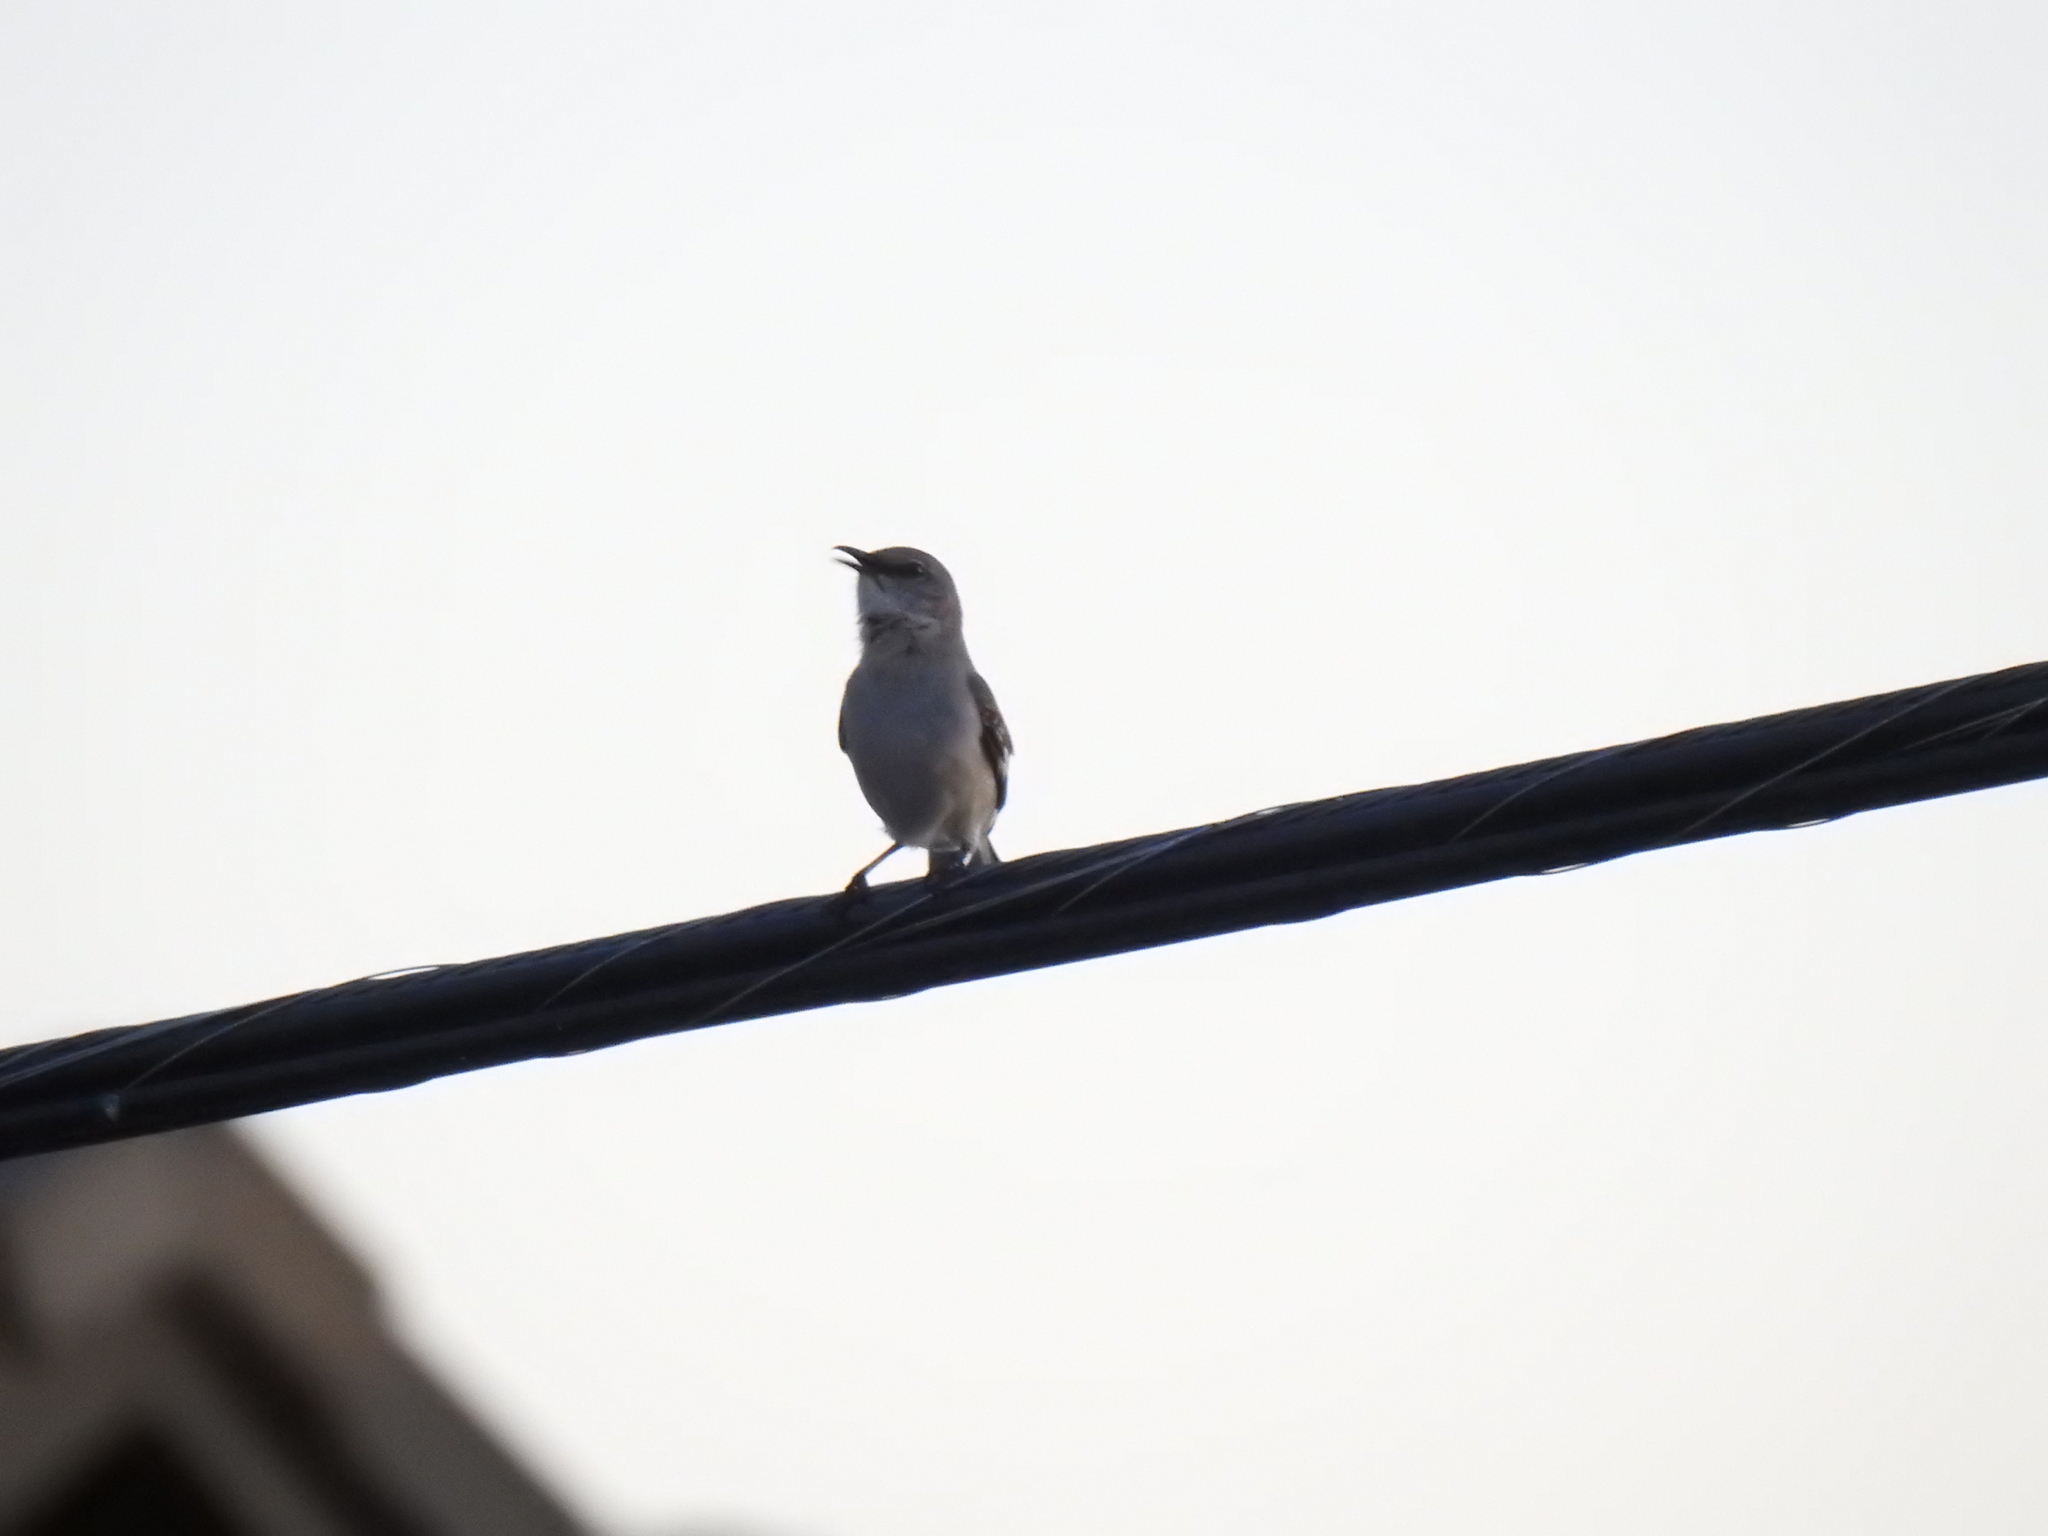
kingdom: Animalia
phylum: Chordata
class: Aves
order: Passeriformes
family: Mimidae
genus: Mimus
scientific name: Mimus polyglottos
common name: Northern mockingbird
